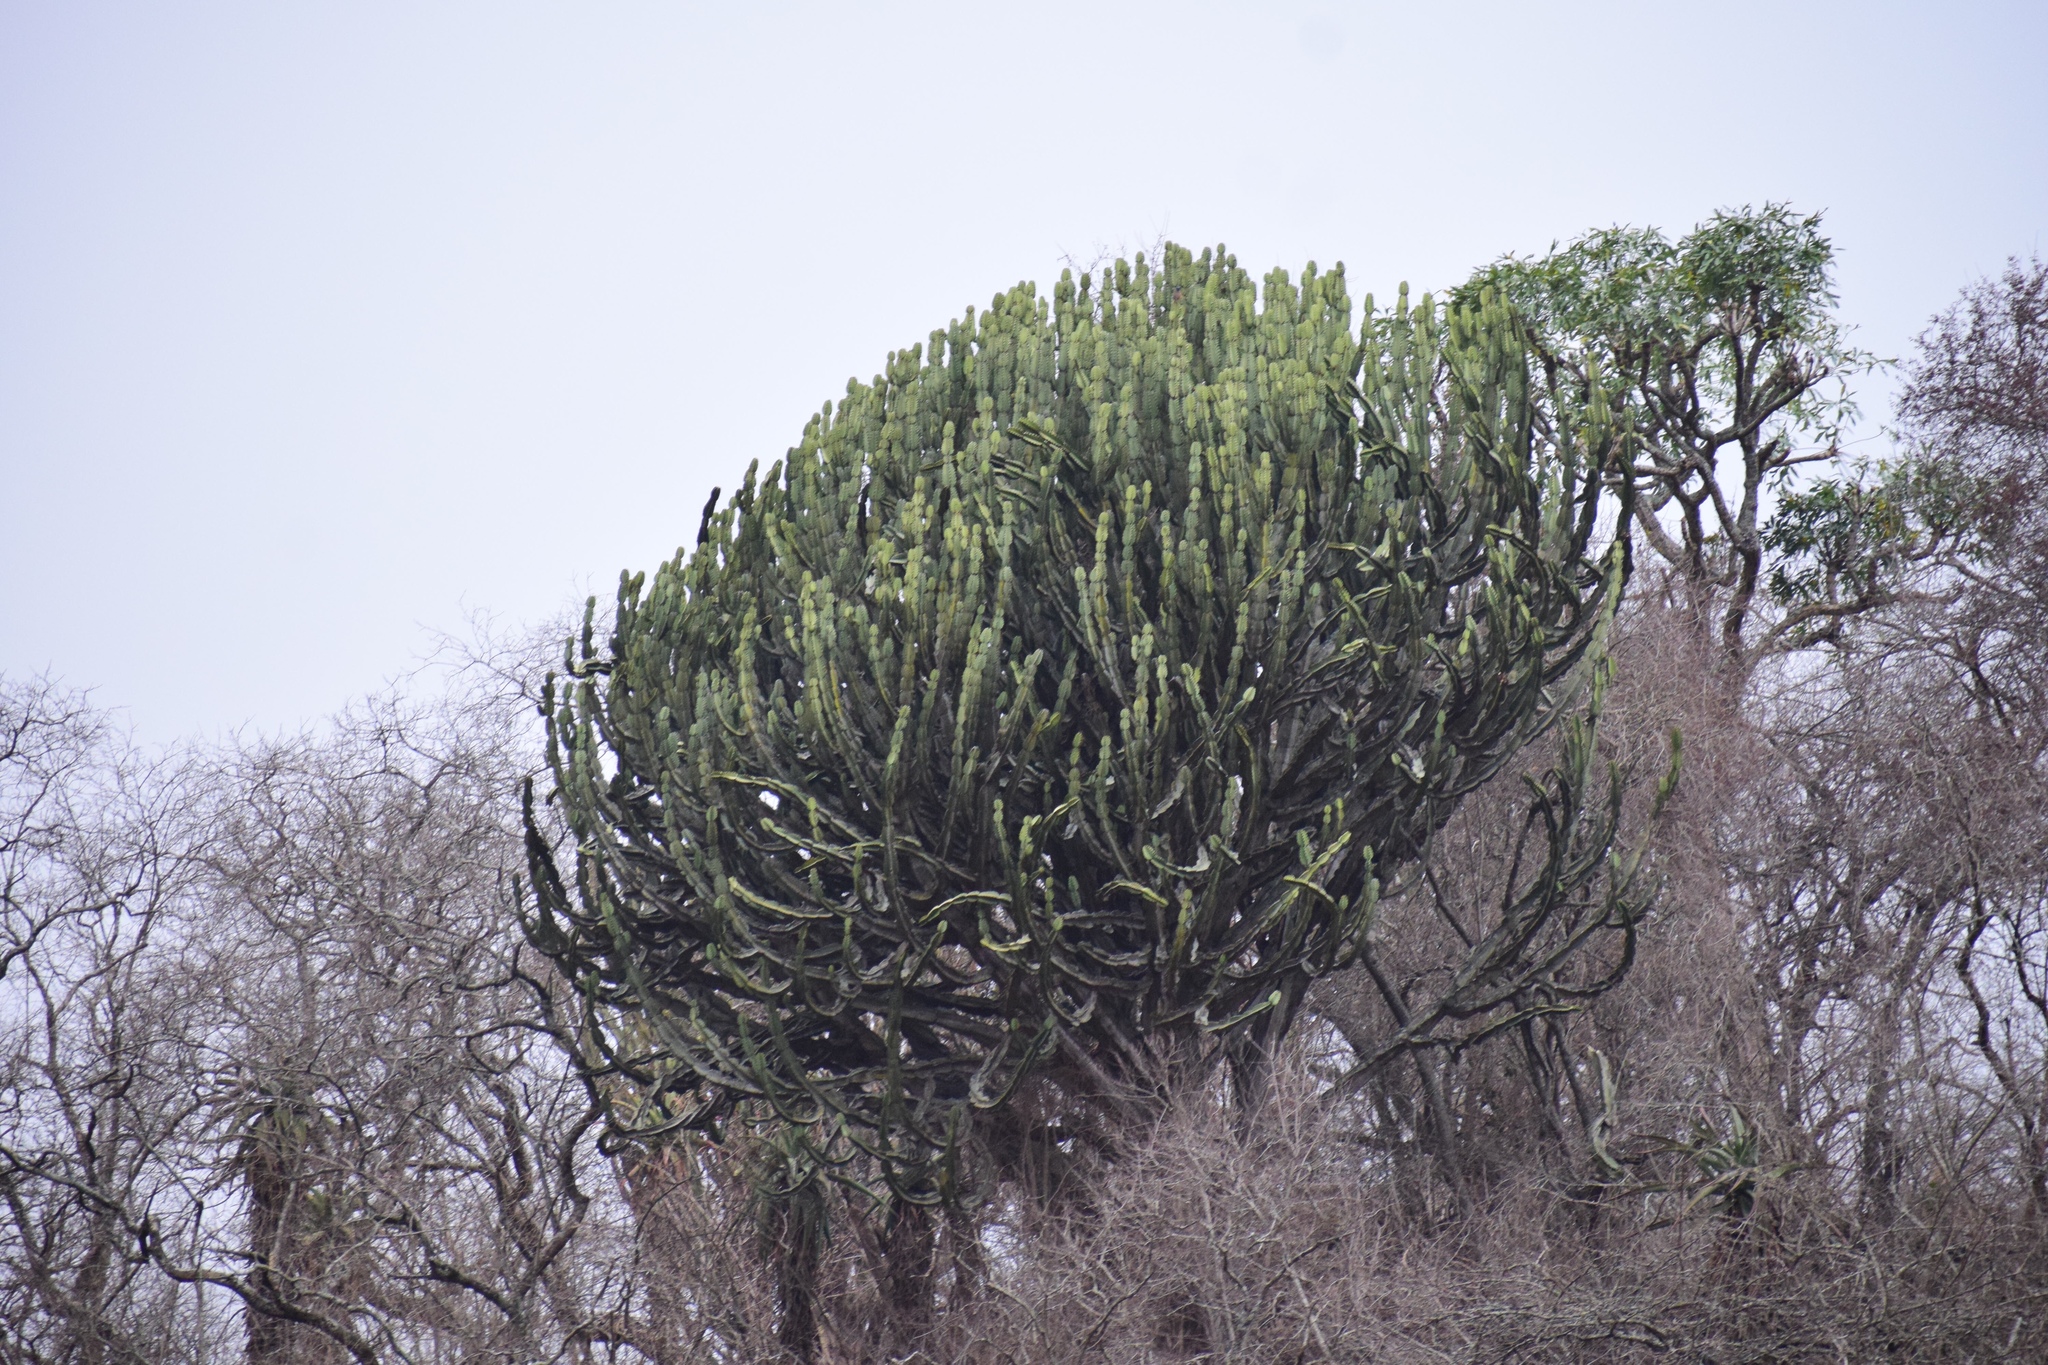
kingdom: Plantae
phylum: Tracheophyta
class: Magnoliopsida
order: Malpighiales
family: Euphorbiaceae
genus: Euphorbia
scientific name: Euphorbia ingens
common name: Cactus spurge
